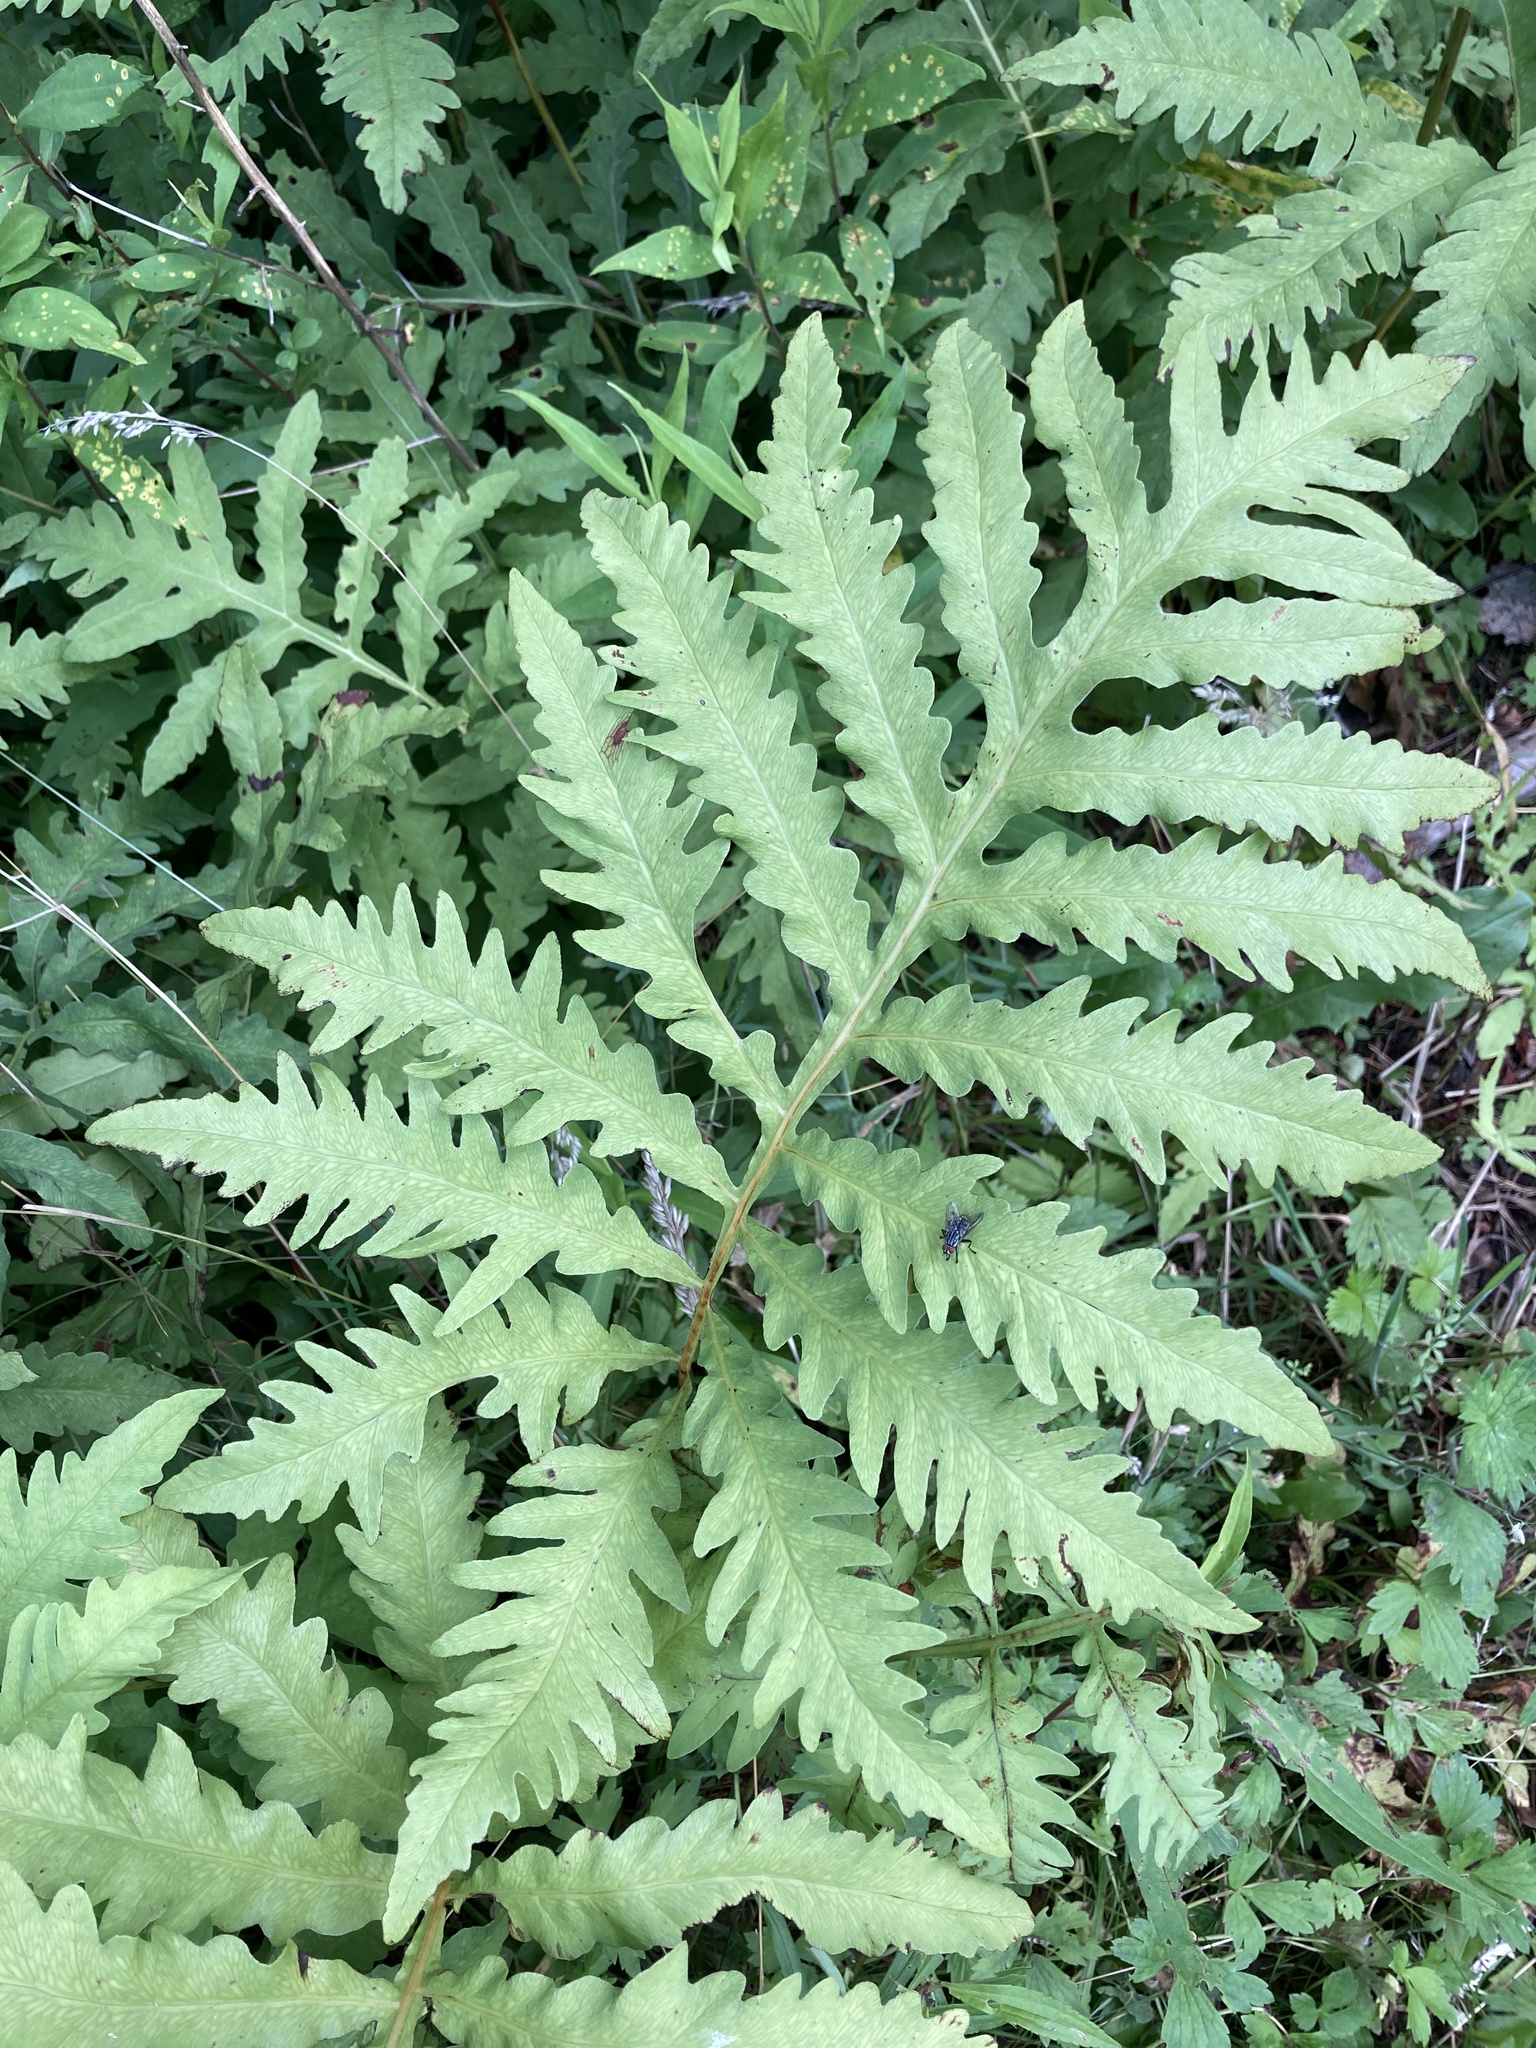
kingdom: Plantae
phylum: Tracheophyta
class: Polypodiopsida
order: Polypodiales
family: Onocleaceae
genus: Onoclea
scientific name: Onoclea sensibilis
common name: Sensitive fern
